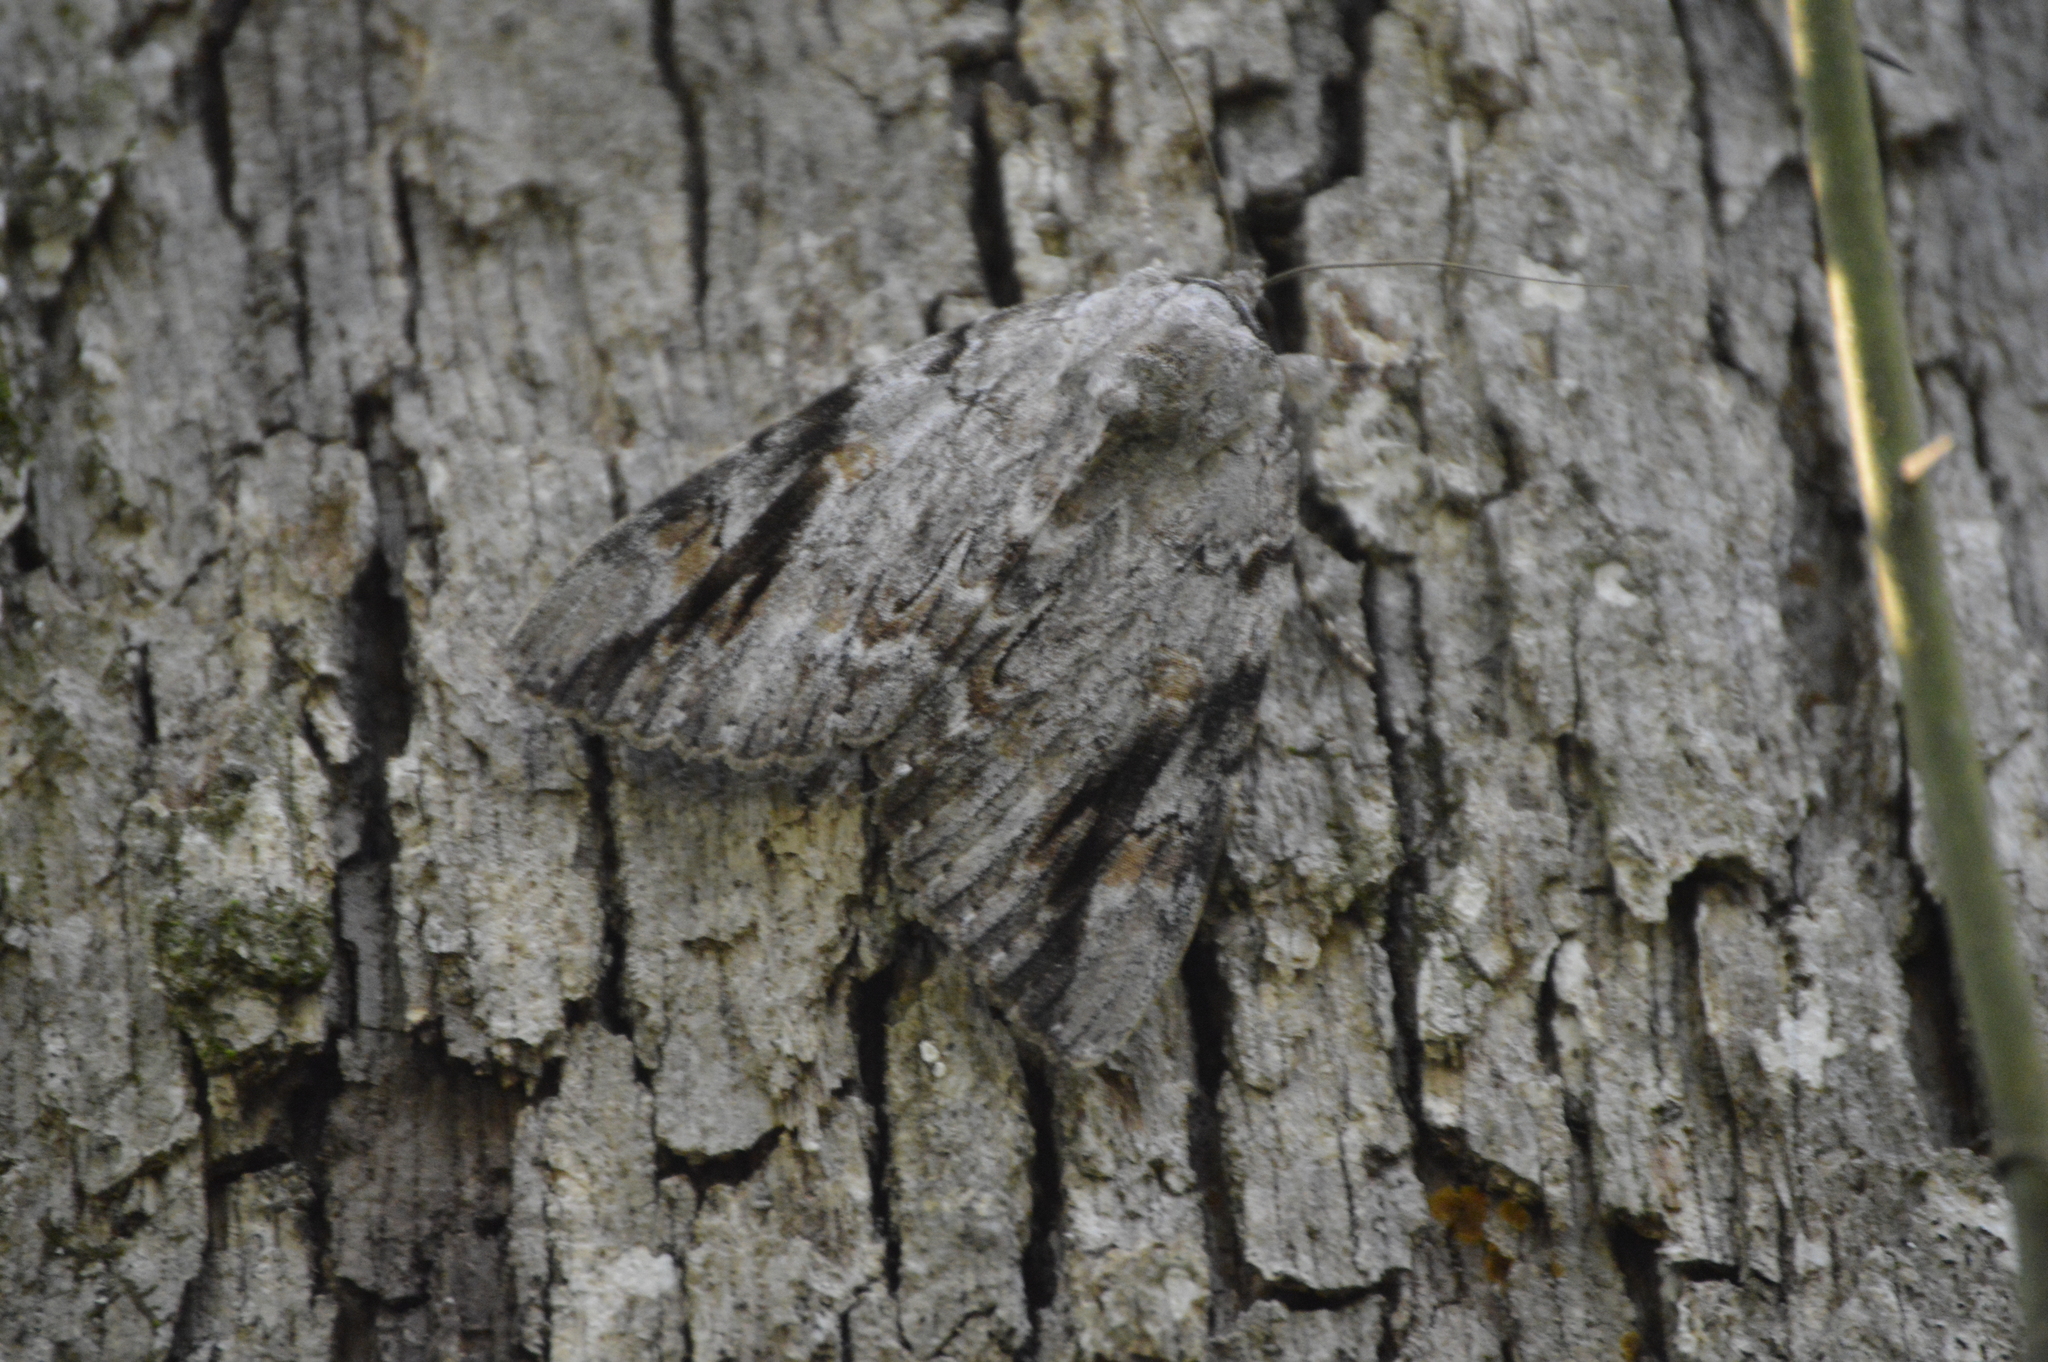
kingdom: Animalia
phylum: Arthropoda
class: Insecta
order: Lepidoptera
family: Erebidae
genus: Catocala
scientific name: Catocala maestosa
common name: Sad underwing
